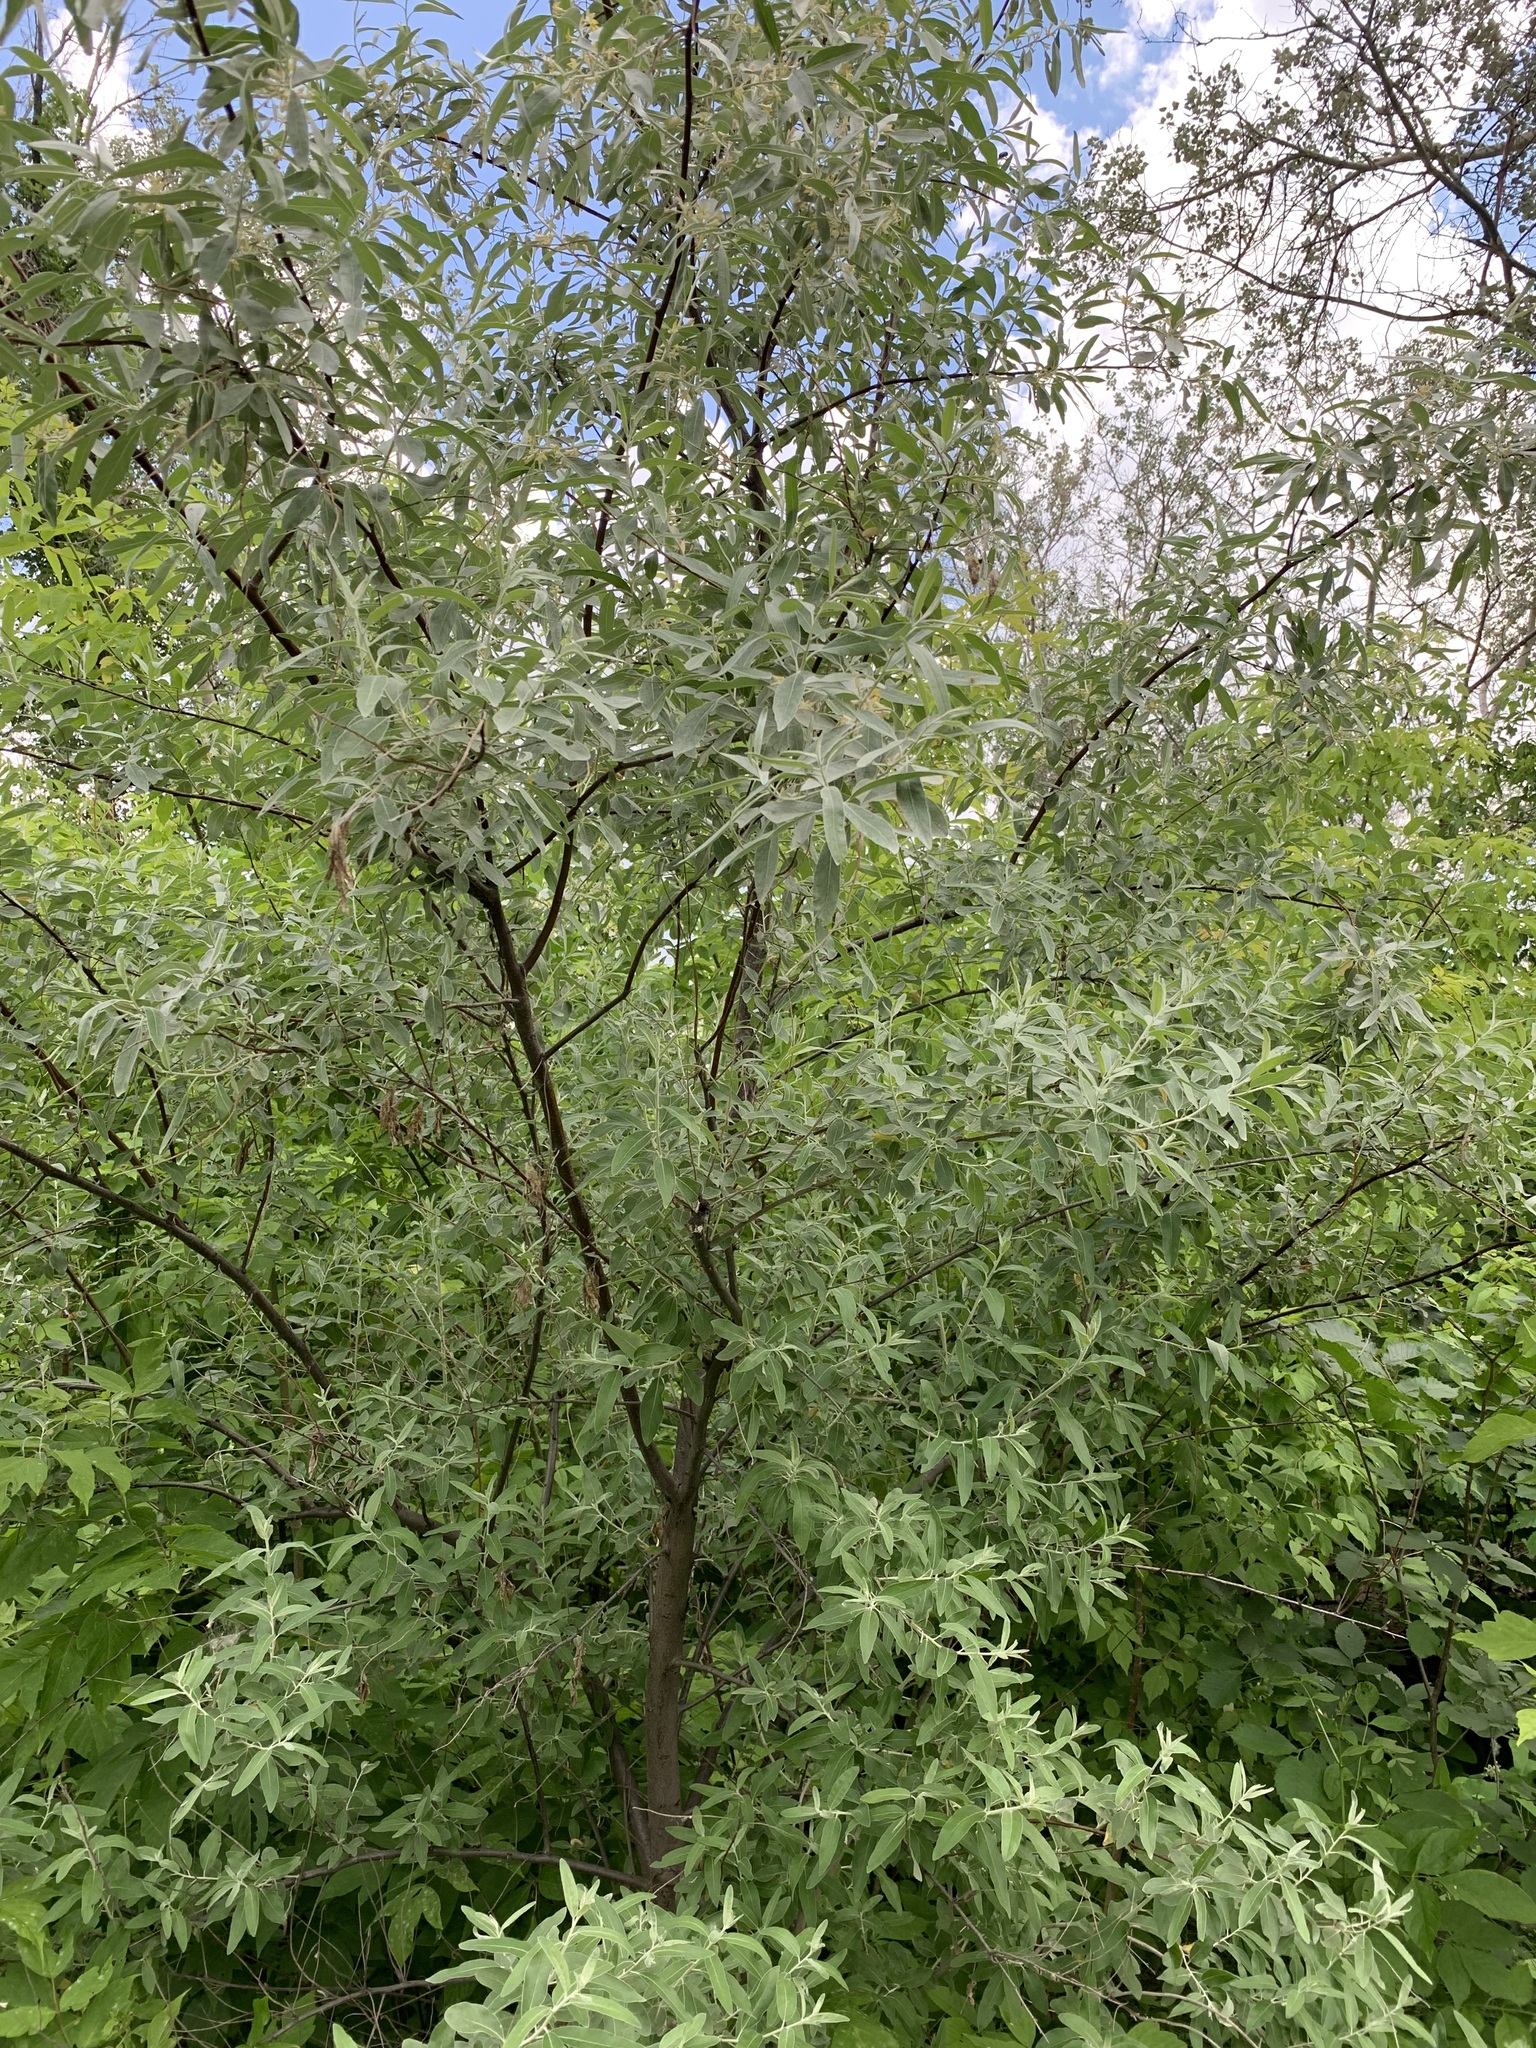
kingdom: Plantae
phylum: Tracheophyta
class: Magnoliopsida
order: Rosales
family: Elaeagnaceae
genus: Elaeagnus
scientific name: Elaeagnus angustifolia
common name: Russian olive
